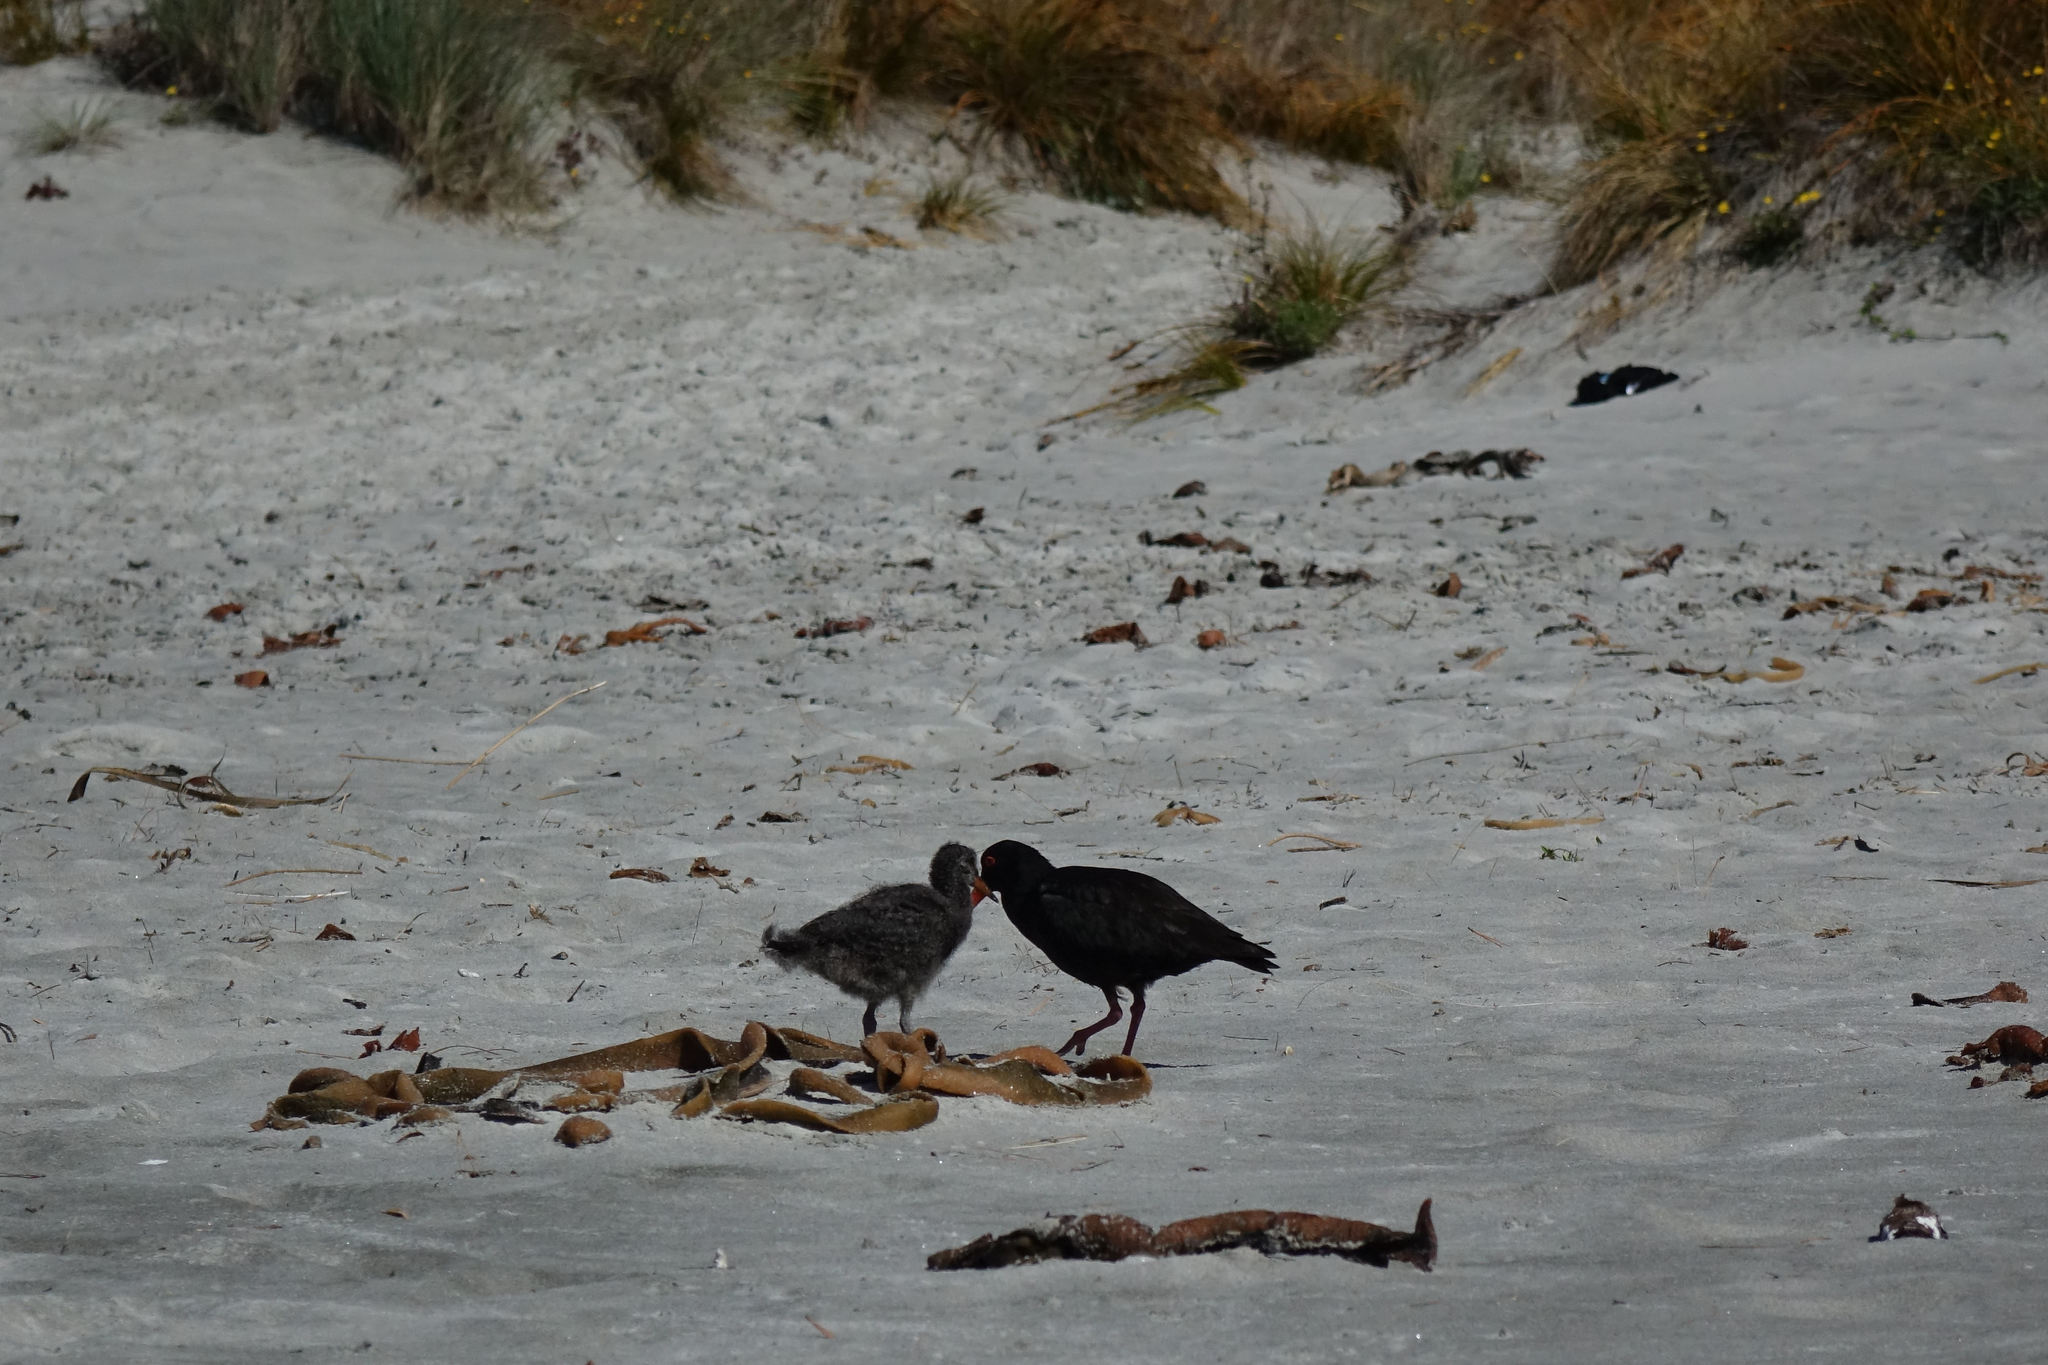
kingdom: Animalia
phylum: Chordata
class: Aves
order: Charadriiformes
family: Haematopodidae
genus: Haematopus
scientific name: Haematopus unicolor
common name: Variable oystercatcher
